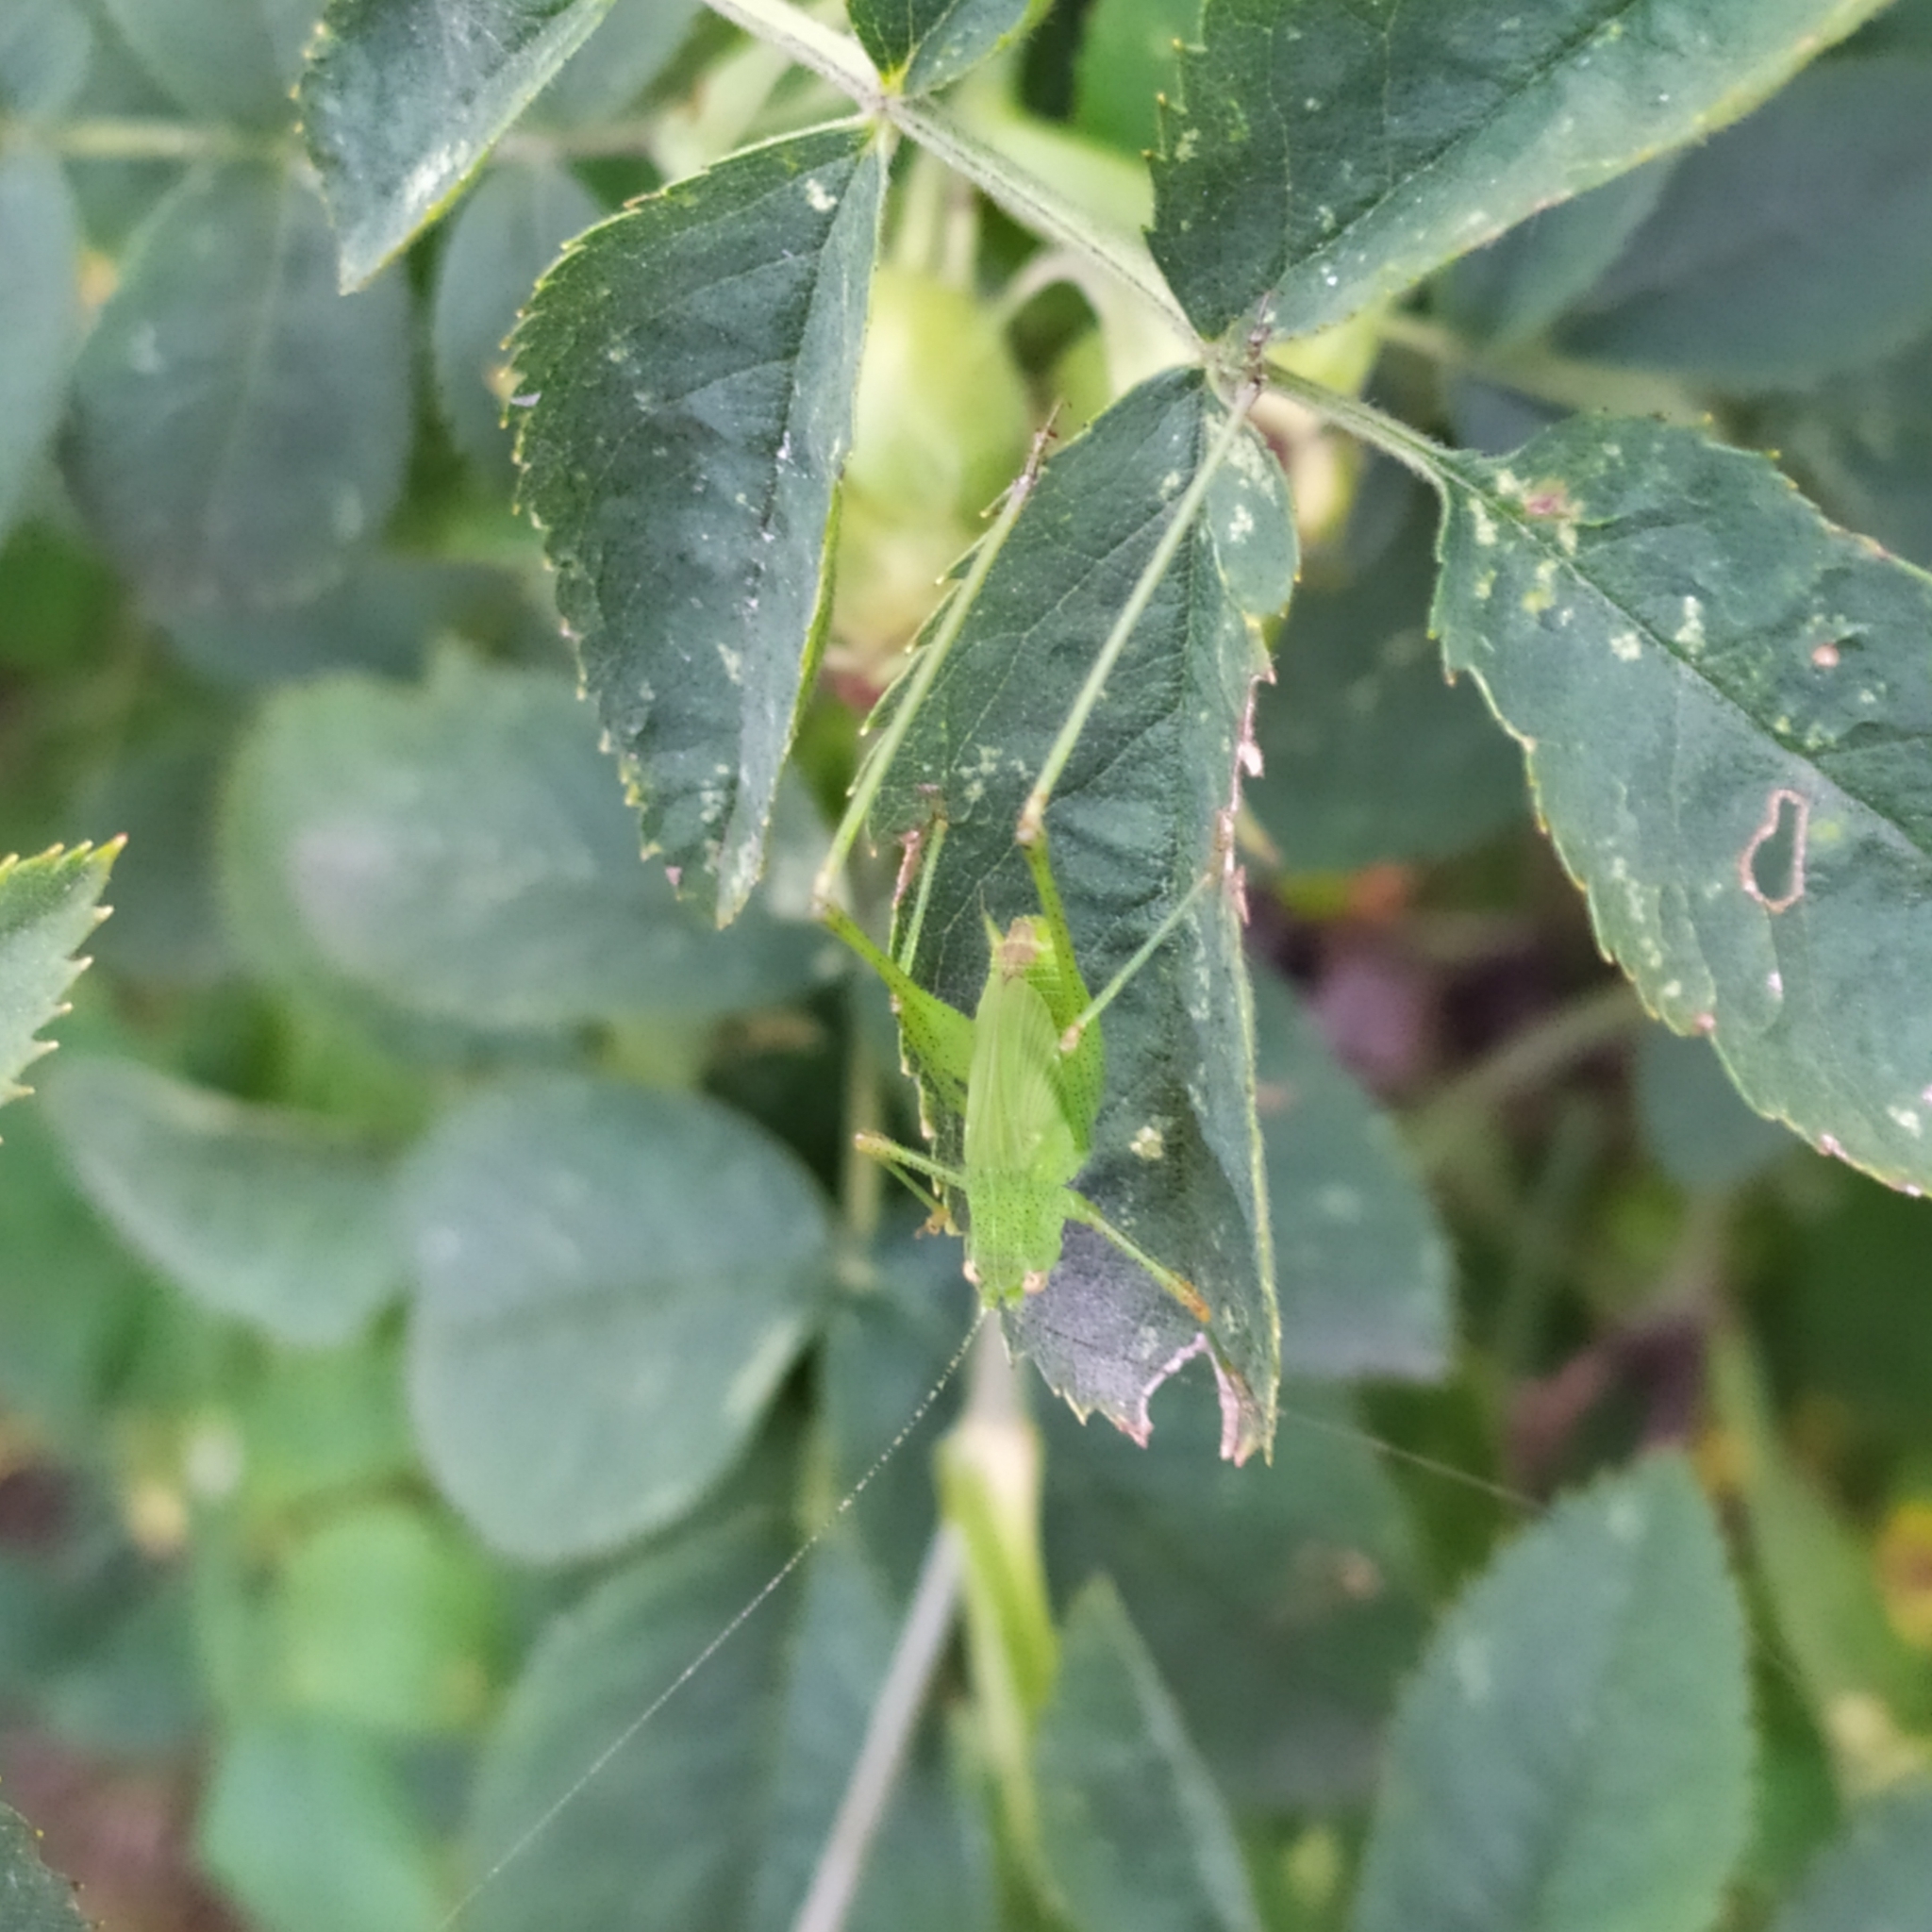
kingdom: Animalia
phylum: Arthropoda
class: Insecta
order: Orthoptera
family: Tettigoniidae
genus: Phaneroptera
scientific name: Phaneroptera nana
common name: Southern sickle bush-cricket
